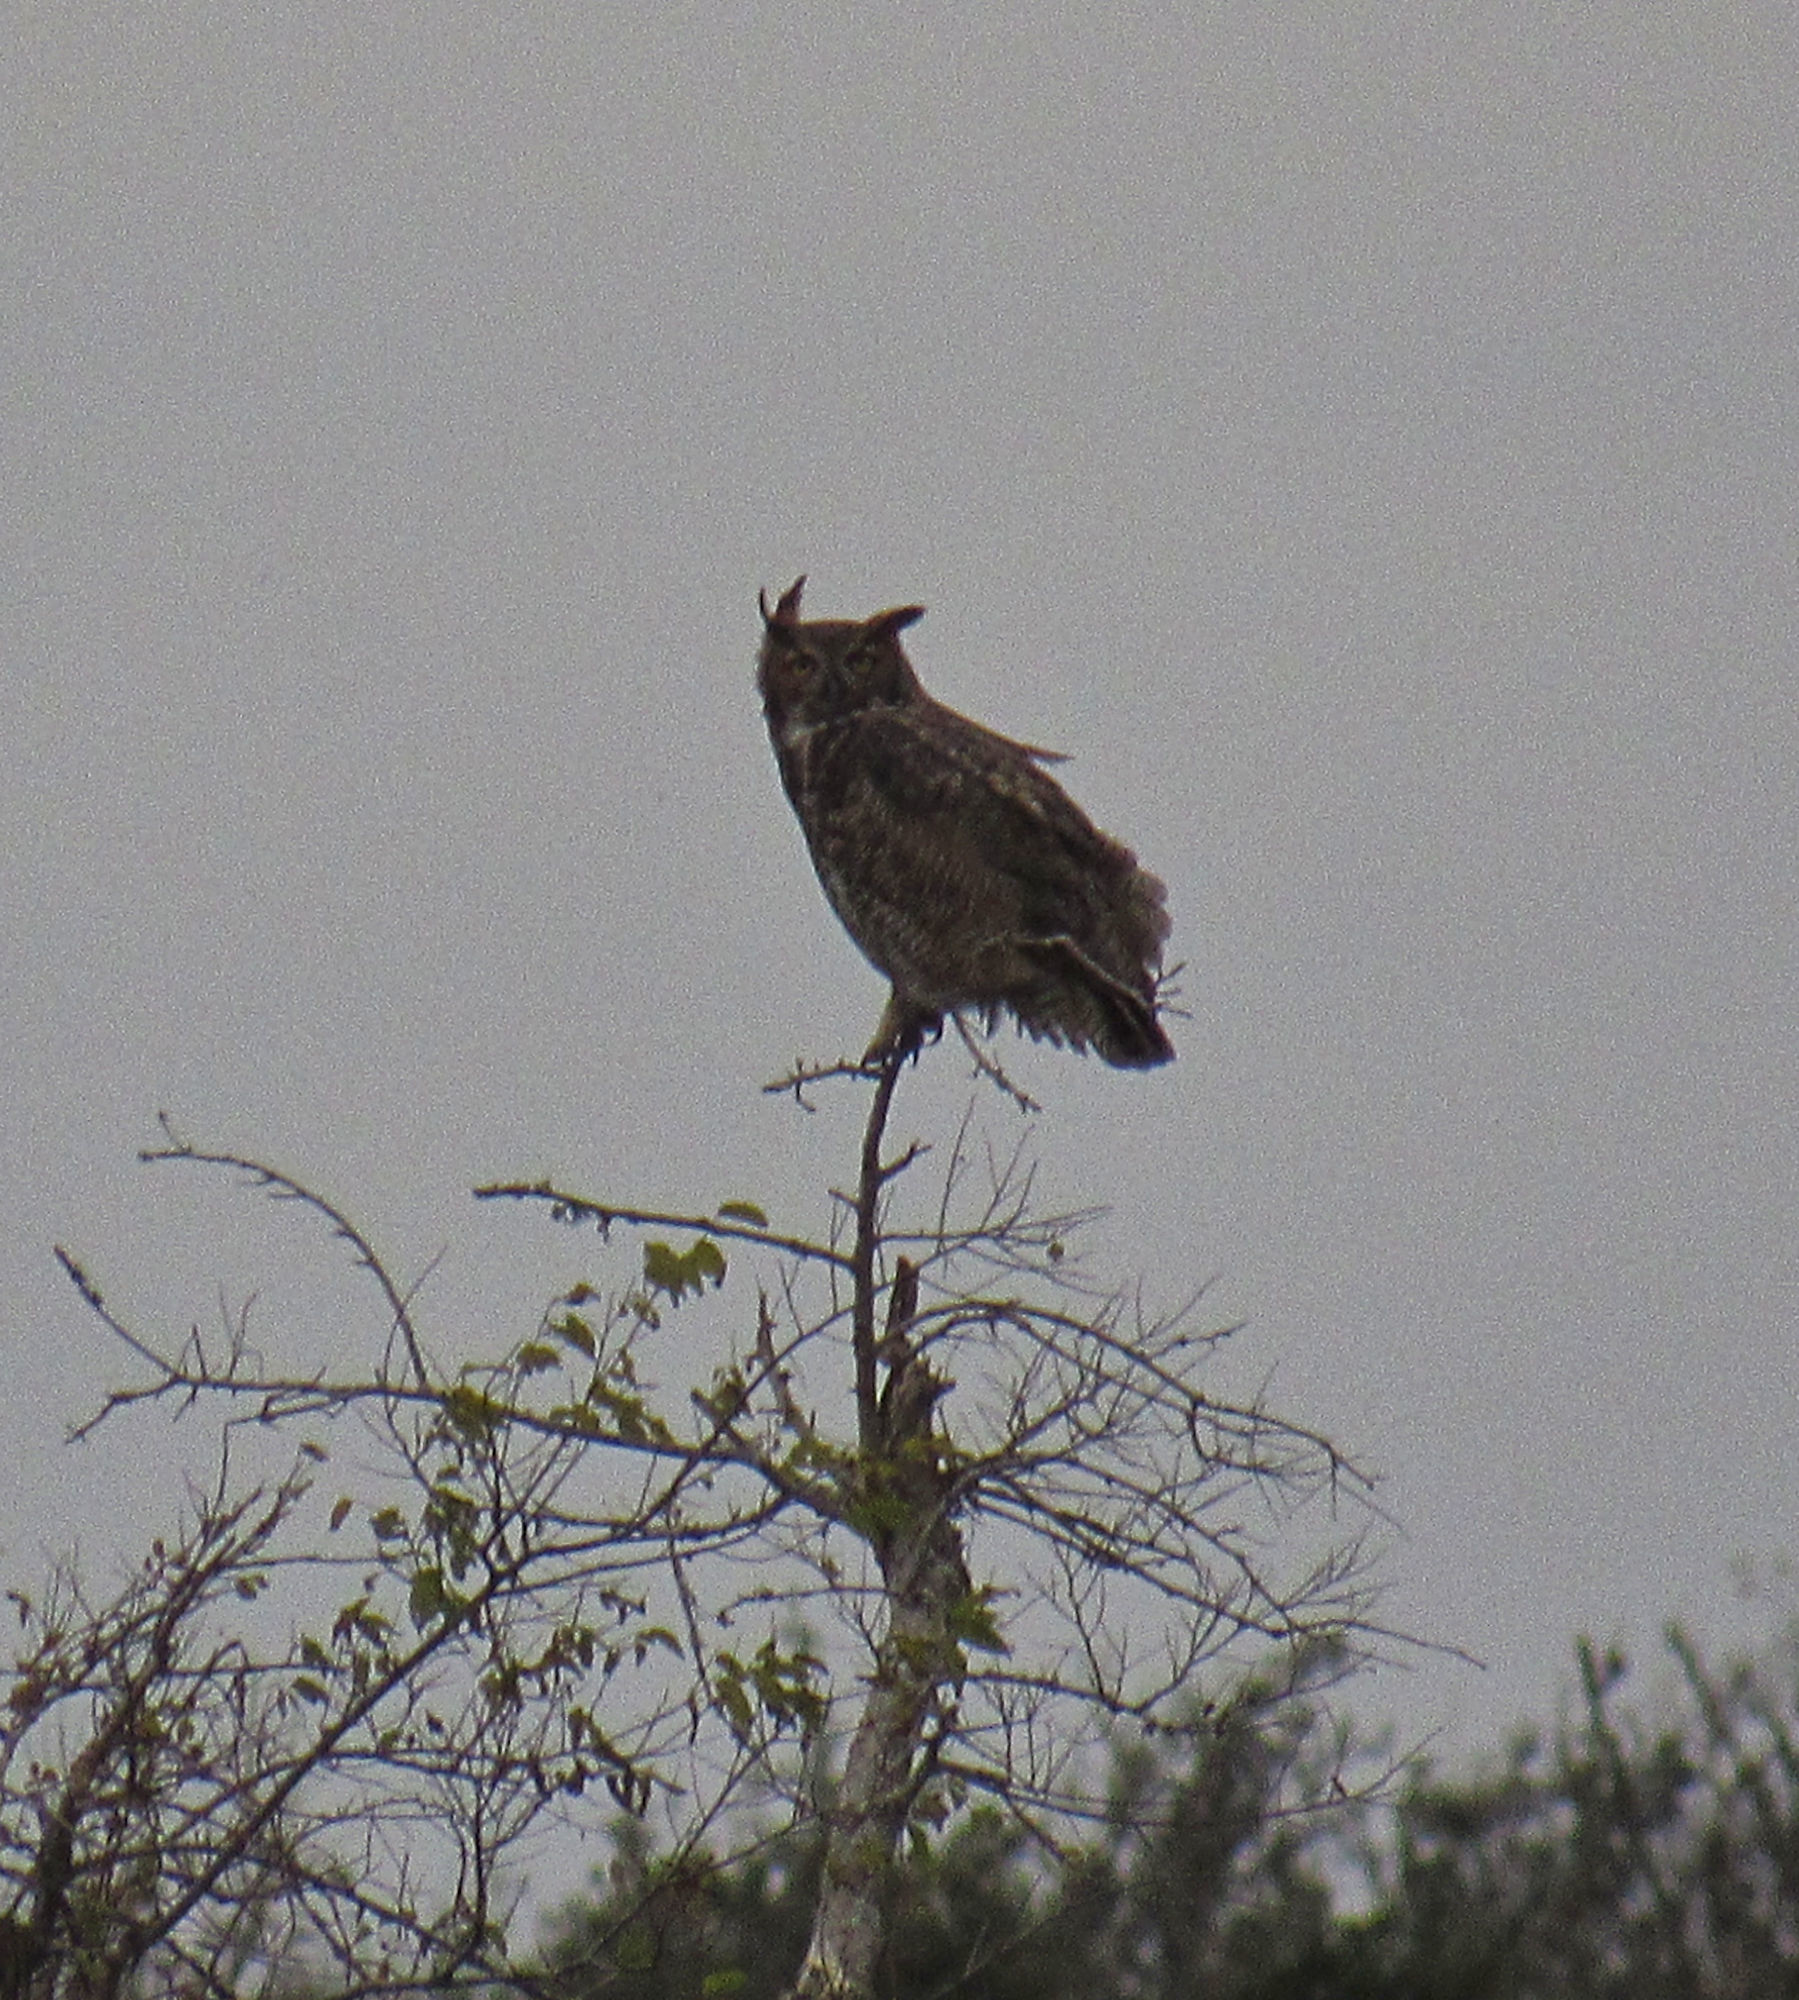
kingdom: Animalia
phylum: Chordata
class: Aves
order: Strigiformes
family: Strigidae
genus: Bubo
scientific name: Bubo virginianus
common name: Great horned owl
